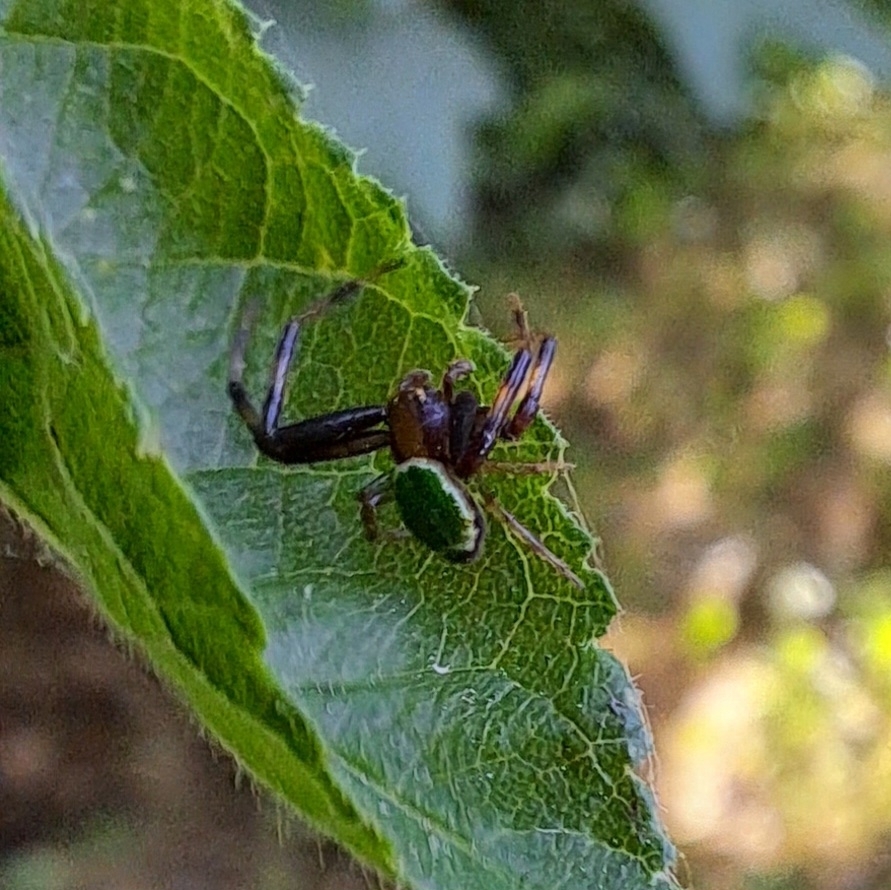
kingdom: Animalia
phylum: Arthropoda
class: Arachnida
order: Araneae
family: Thomisidae
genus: Ebrechtella
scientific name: Ebrechtella tricuspidata
